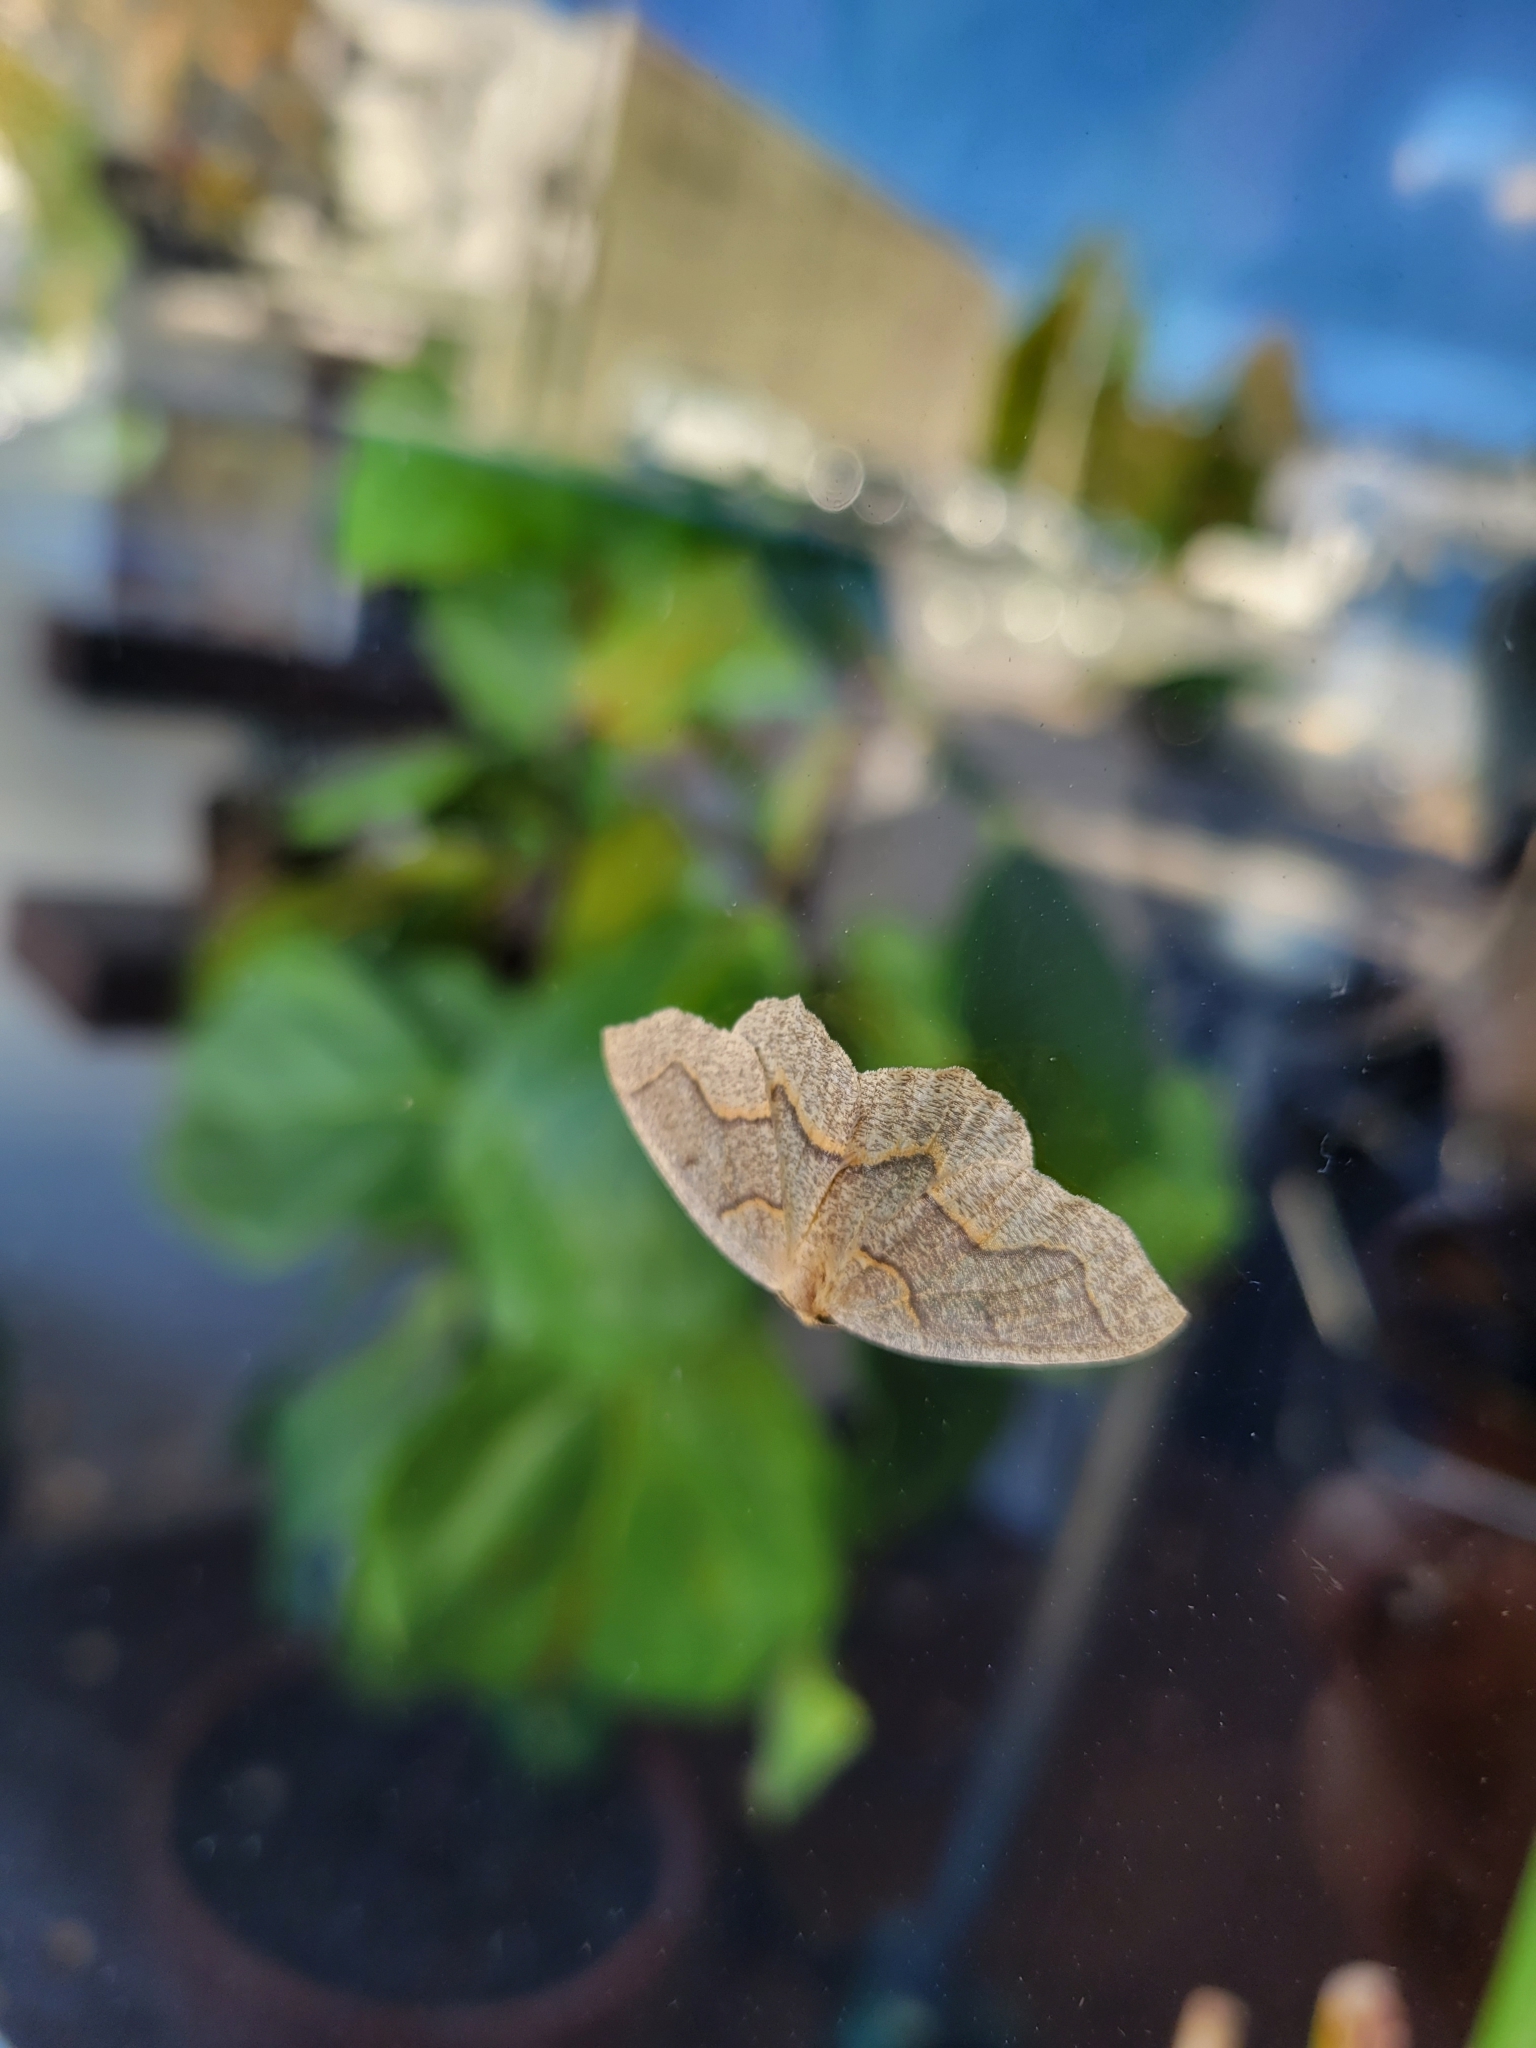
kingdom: Animalia
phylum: Arthropoda
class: Insecta
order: Lepidoptera
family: Geometridae
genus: Lambdina
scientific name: Lambdina fiscellaria
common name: Hemlock looper
